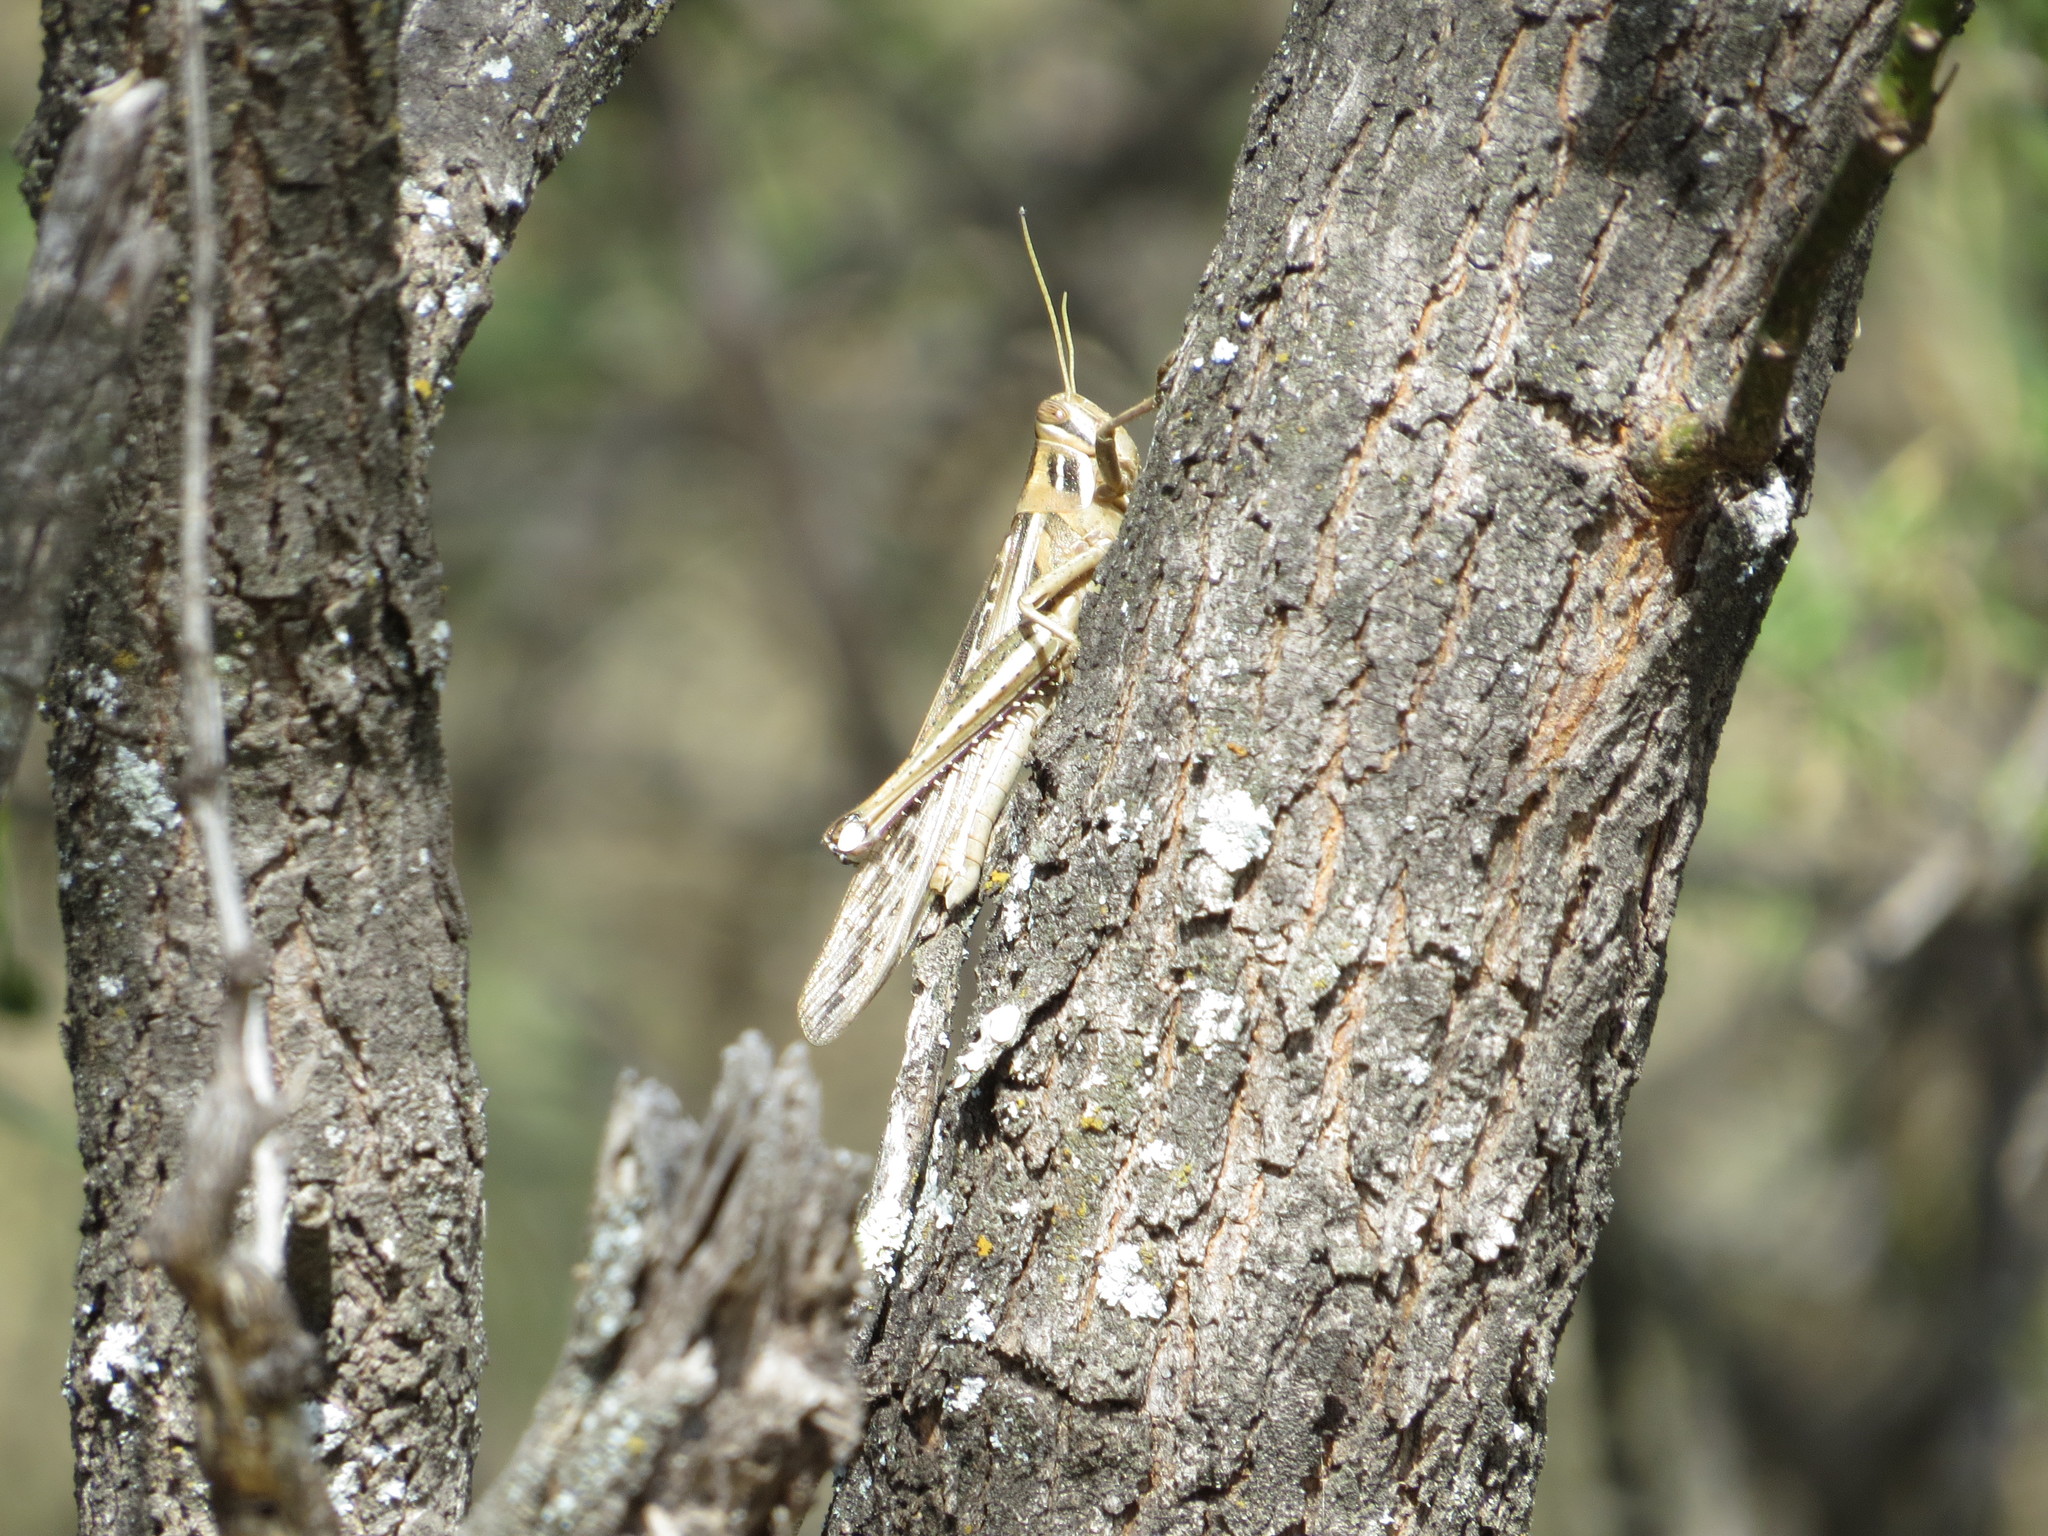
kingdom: Animalia
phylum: Arthropoda
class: Insecta
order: Orthoptera
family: Acrididae
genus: Schistocerca
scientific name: Schistocerca cancellata
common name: South american locust
